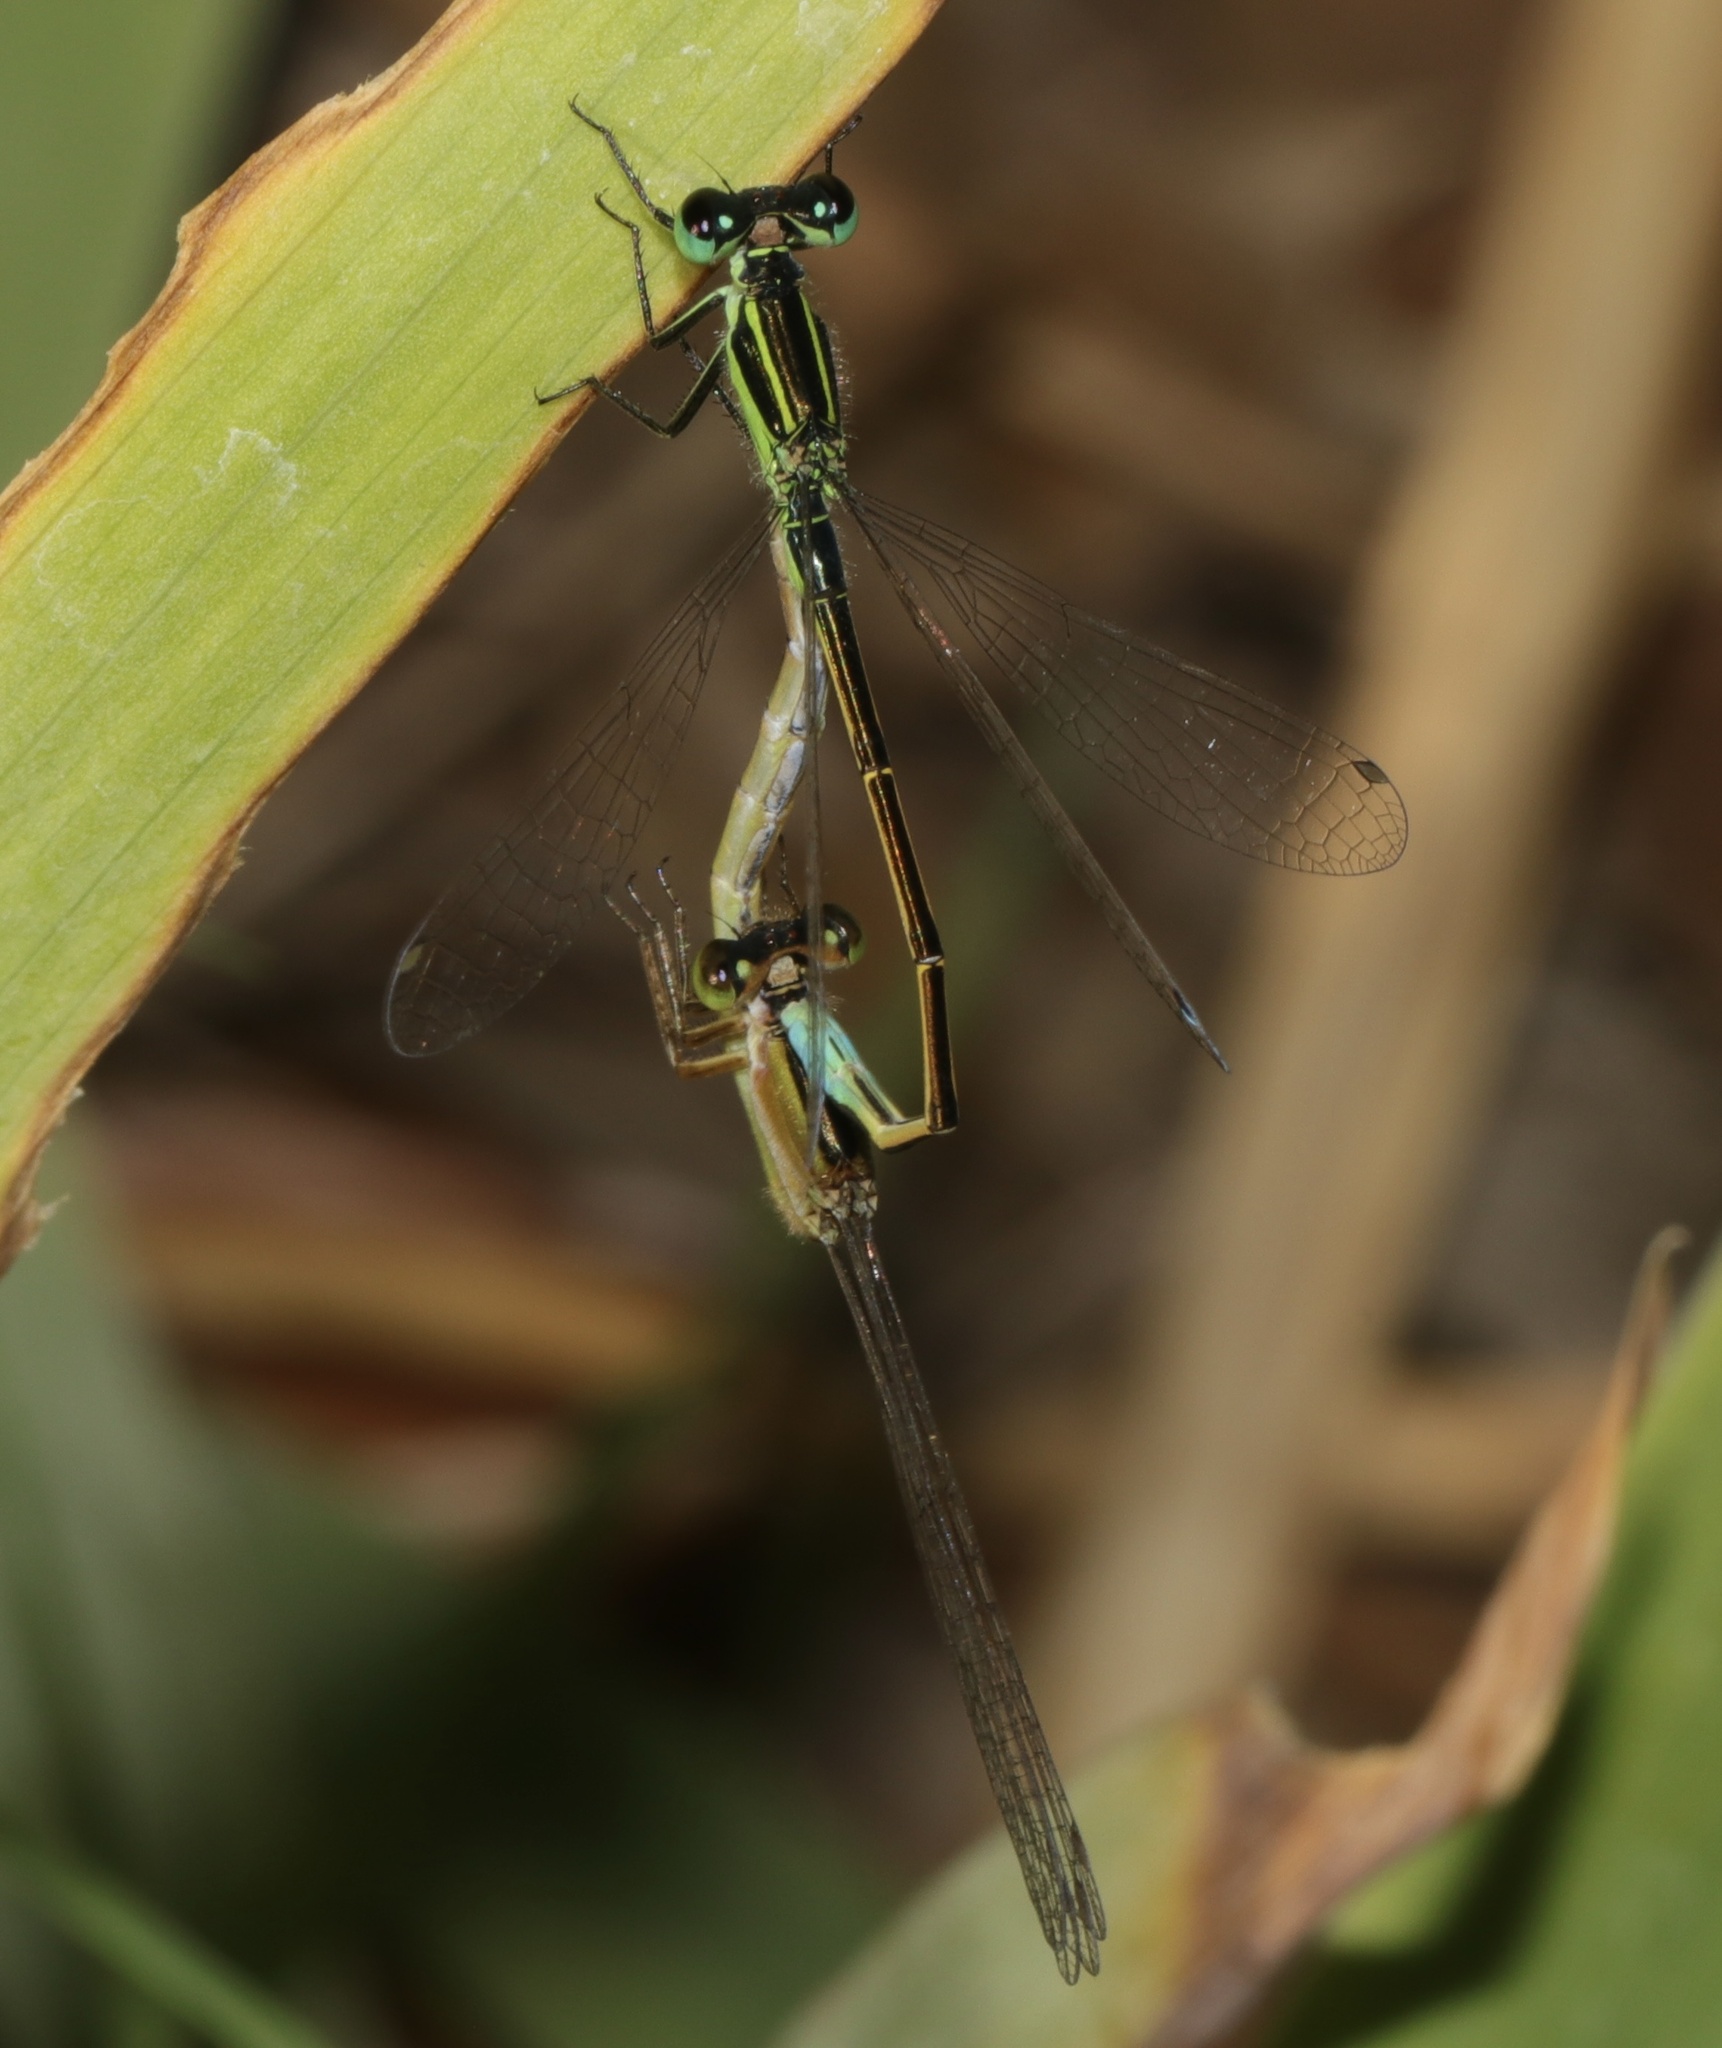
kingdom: Animalia
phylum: Arthropoda
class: Insecta
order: Odonata
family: Coenagrionidae
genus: Ischnura
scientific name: Ischnura ramburii
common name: Rambur's forktail
